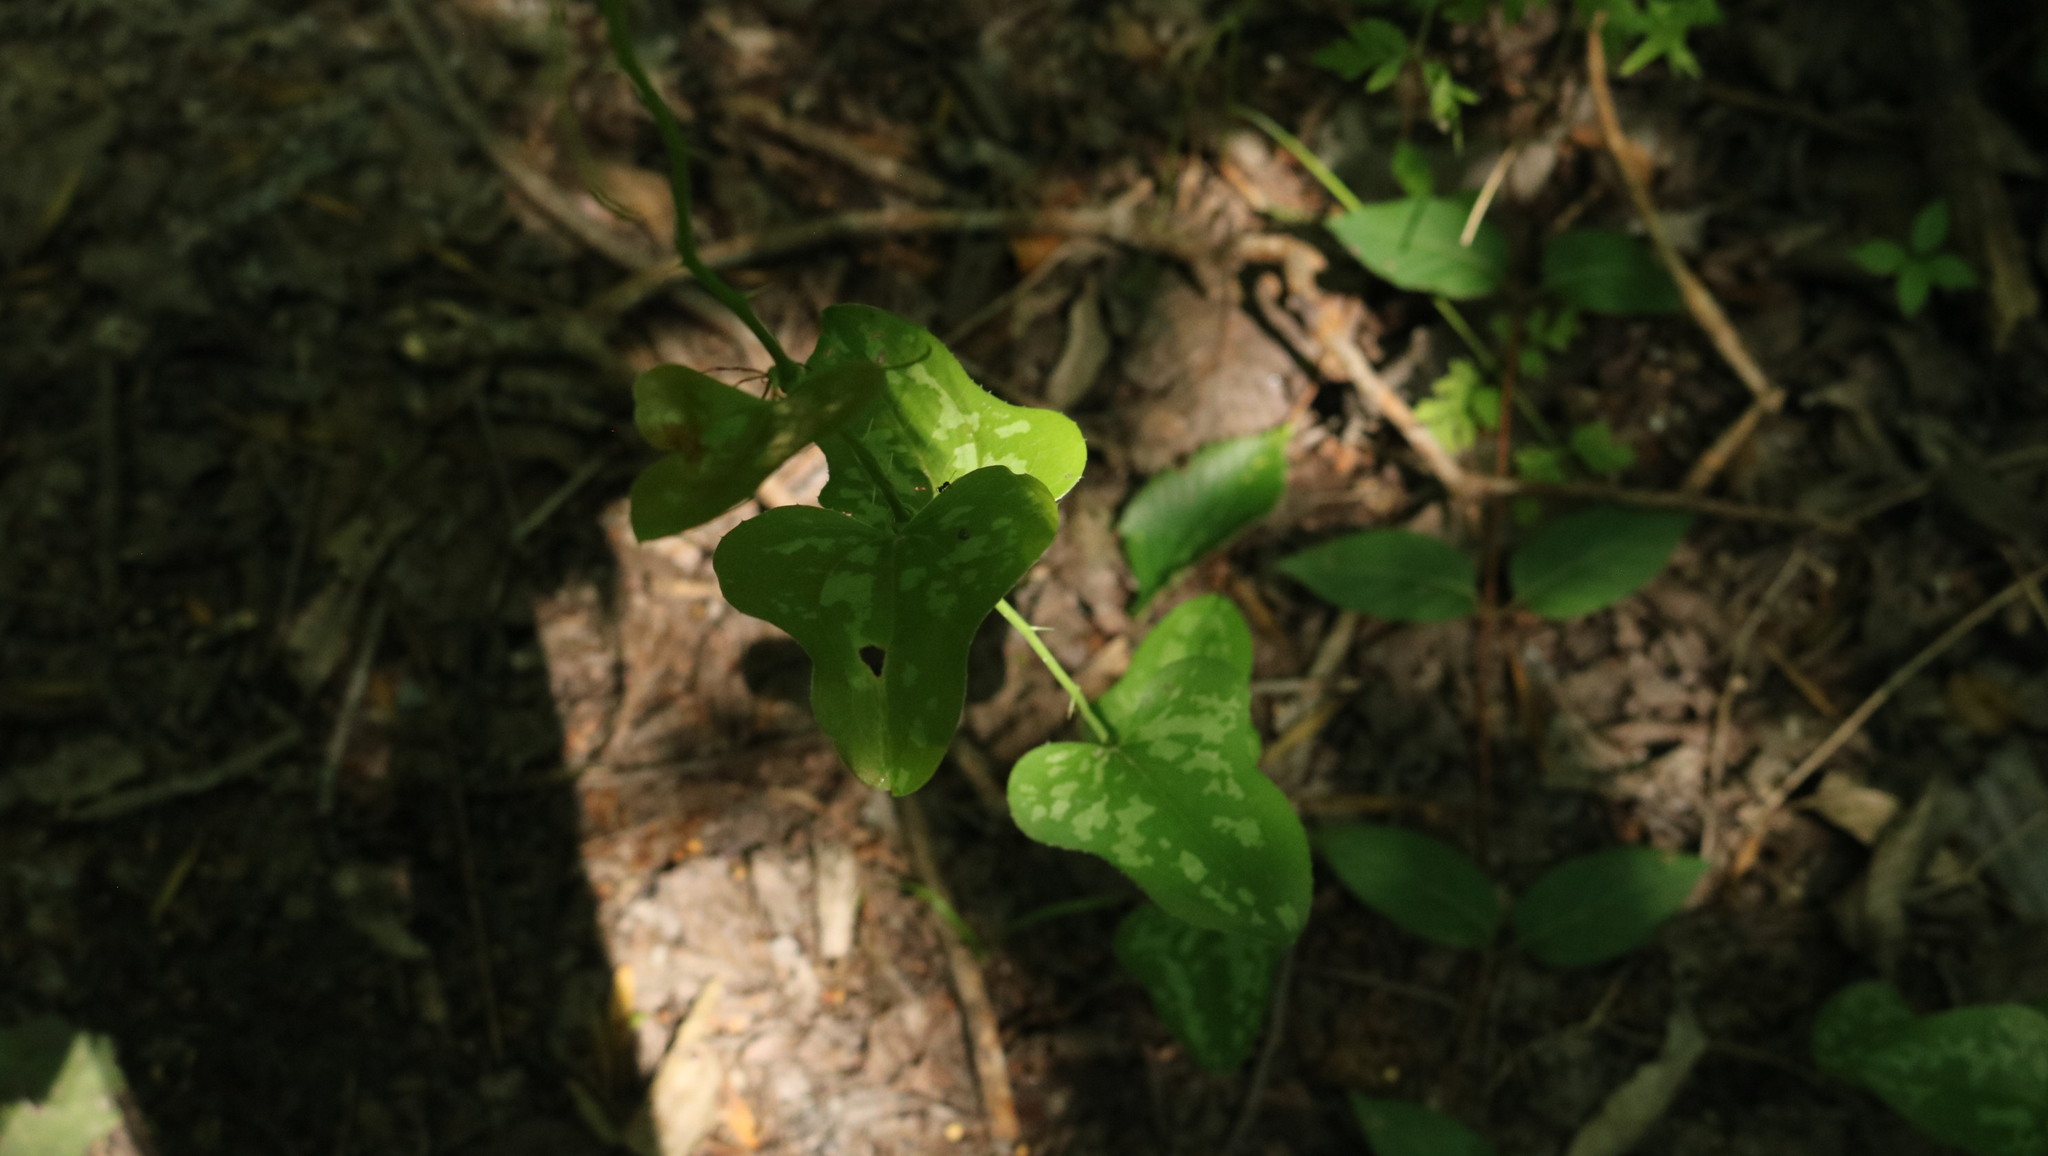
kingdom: Plantae
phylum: Tracheophyta
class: Liliopsida
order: Liliales
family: Smilacaceae
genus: Smilax
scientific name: Smilax bona-nox
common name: Catbrier
